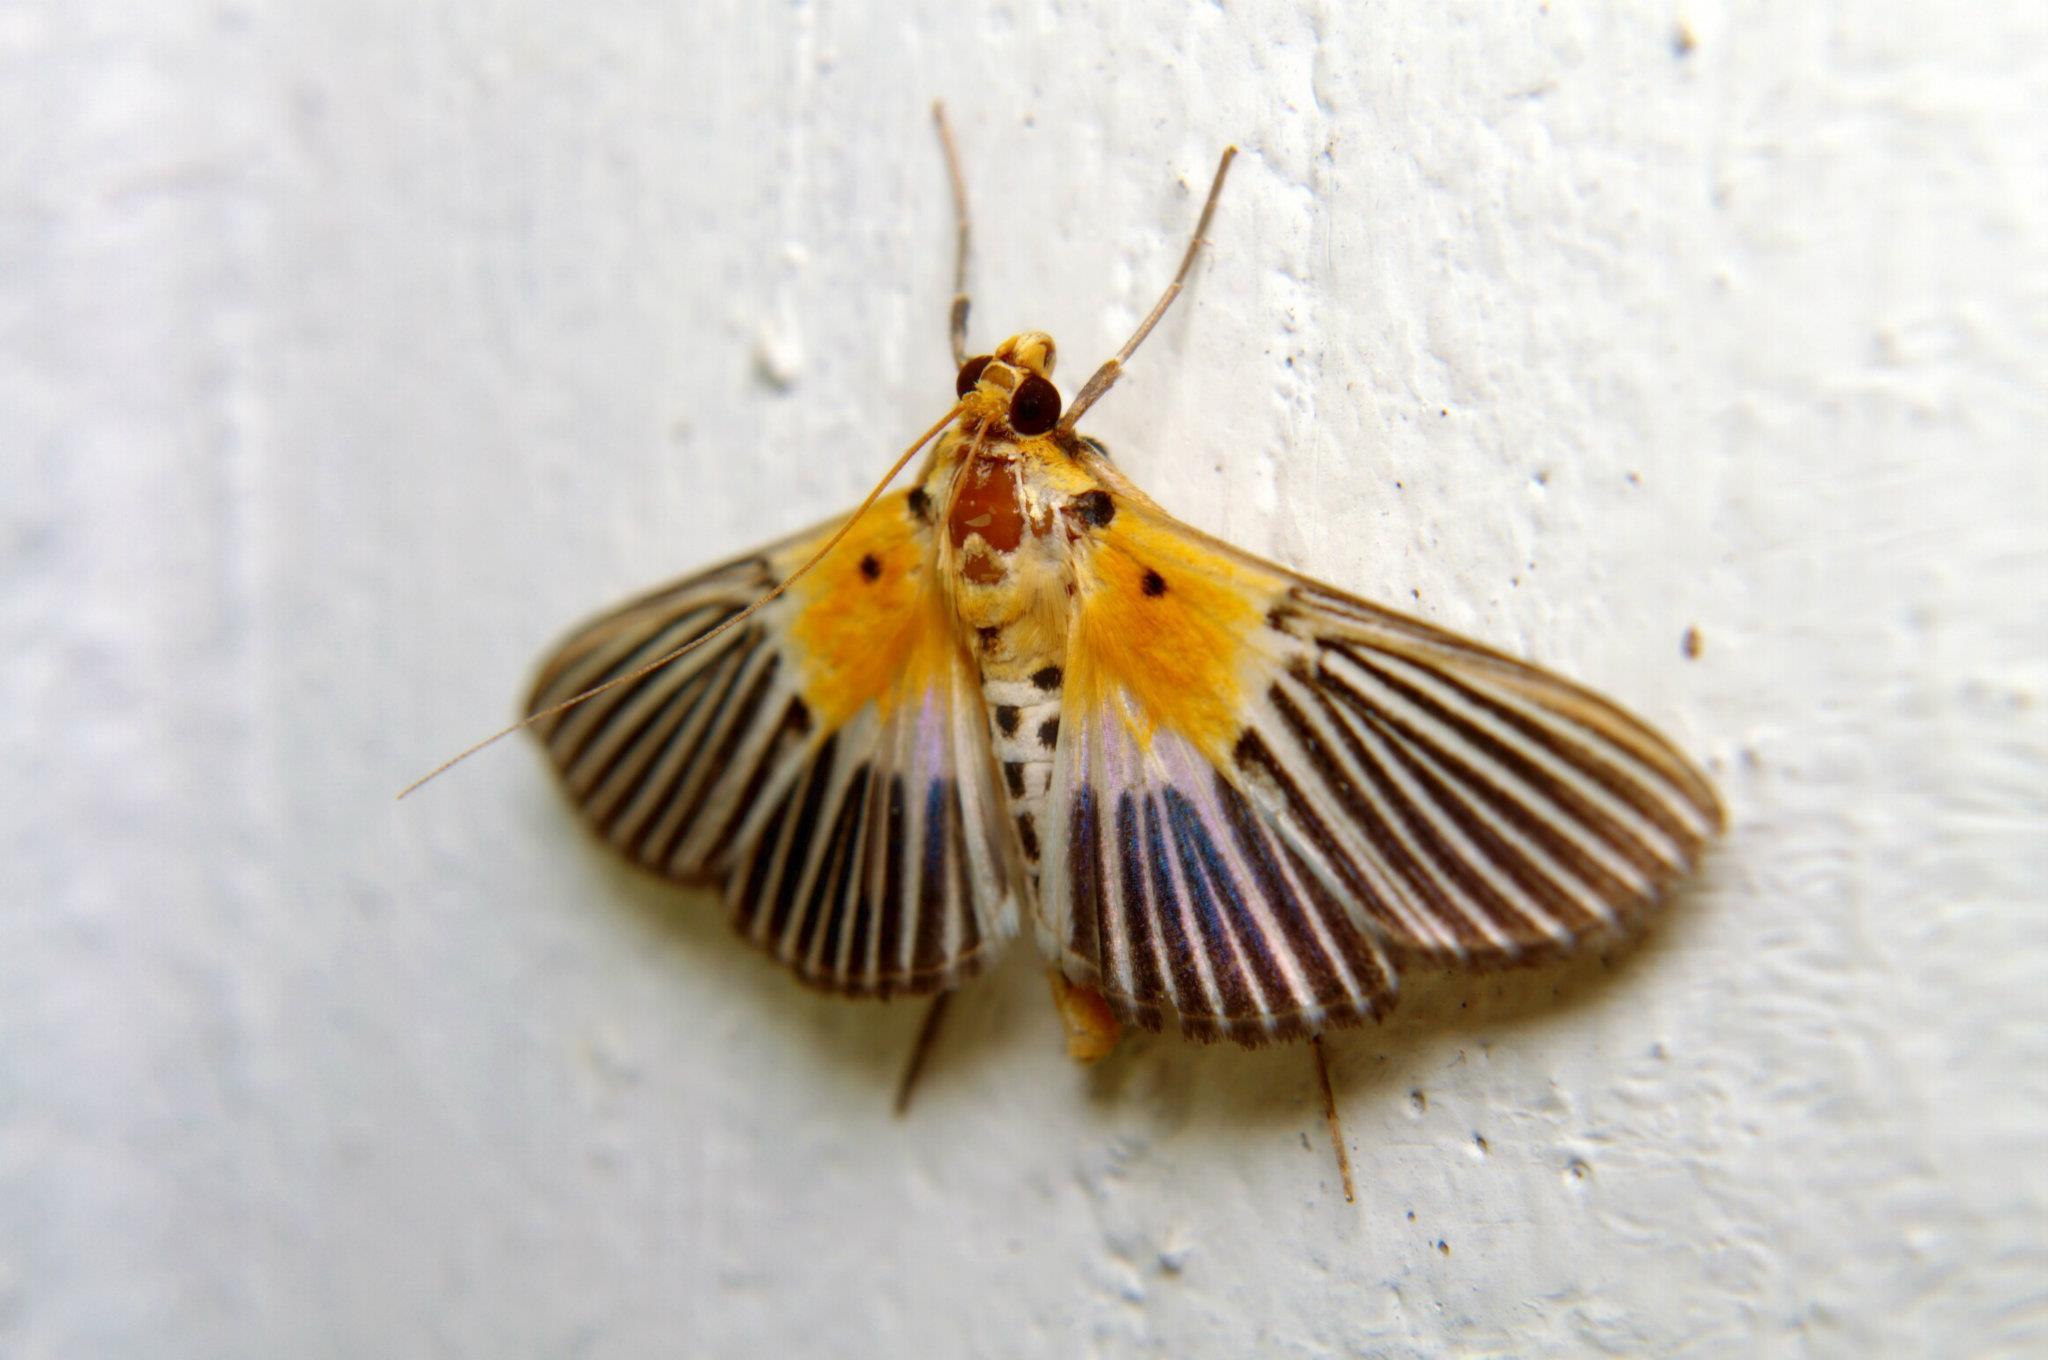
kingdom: Animalia
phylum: Arthropoda
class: Insecta
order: Lepidoptera
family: Crambidae
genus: Nevrina
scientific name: Nevrina procopia
